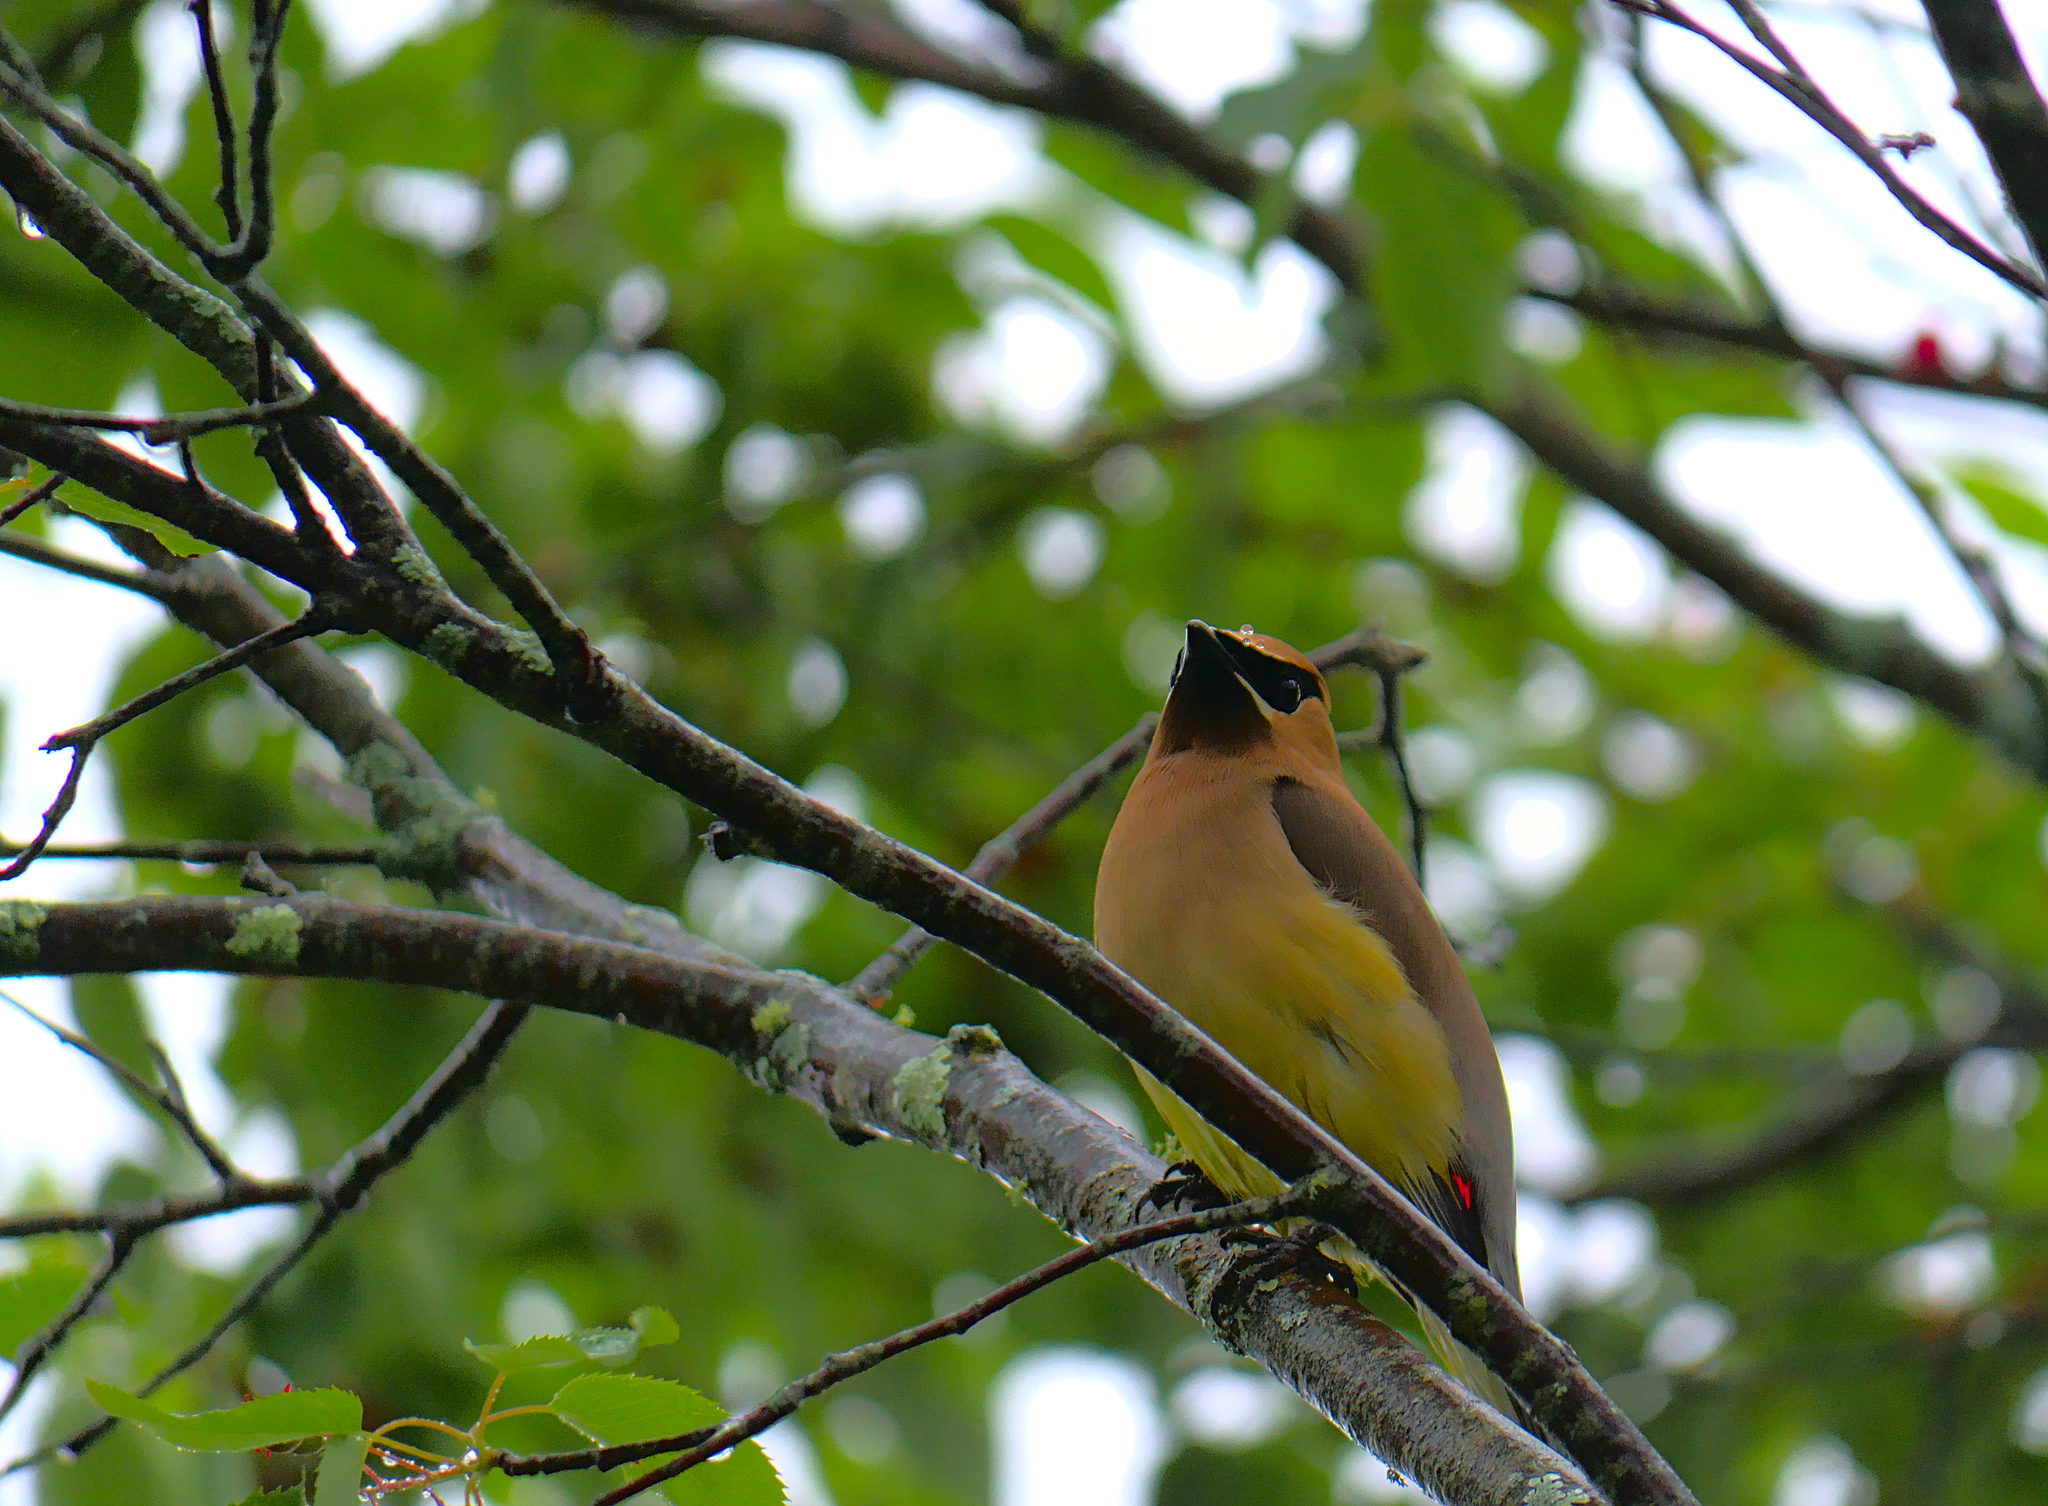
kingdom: Animalia
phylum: Chordata
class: Aves
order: Passeriformes
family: Bombycillidae
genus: Bombycilla
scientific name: Bombycilla cedrorum
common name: Cedar waxwing
